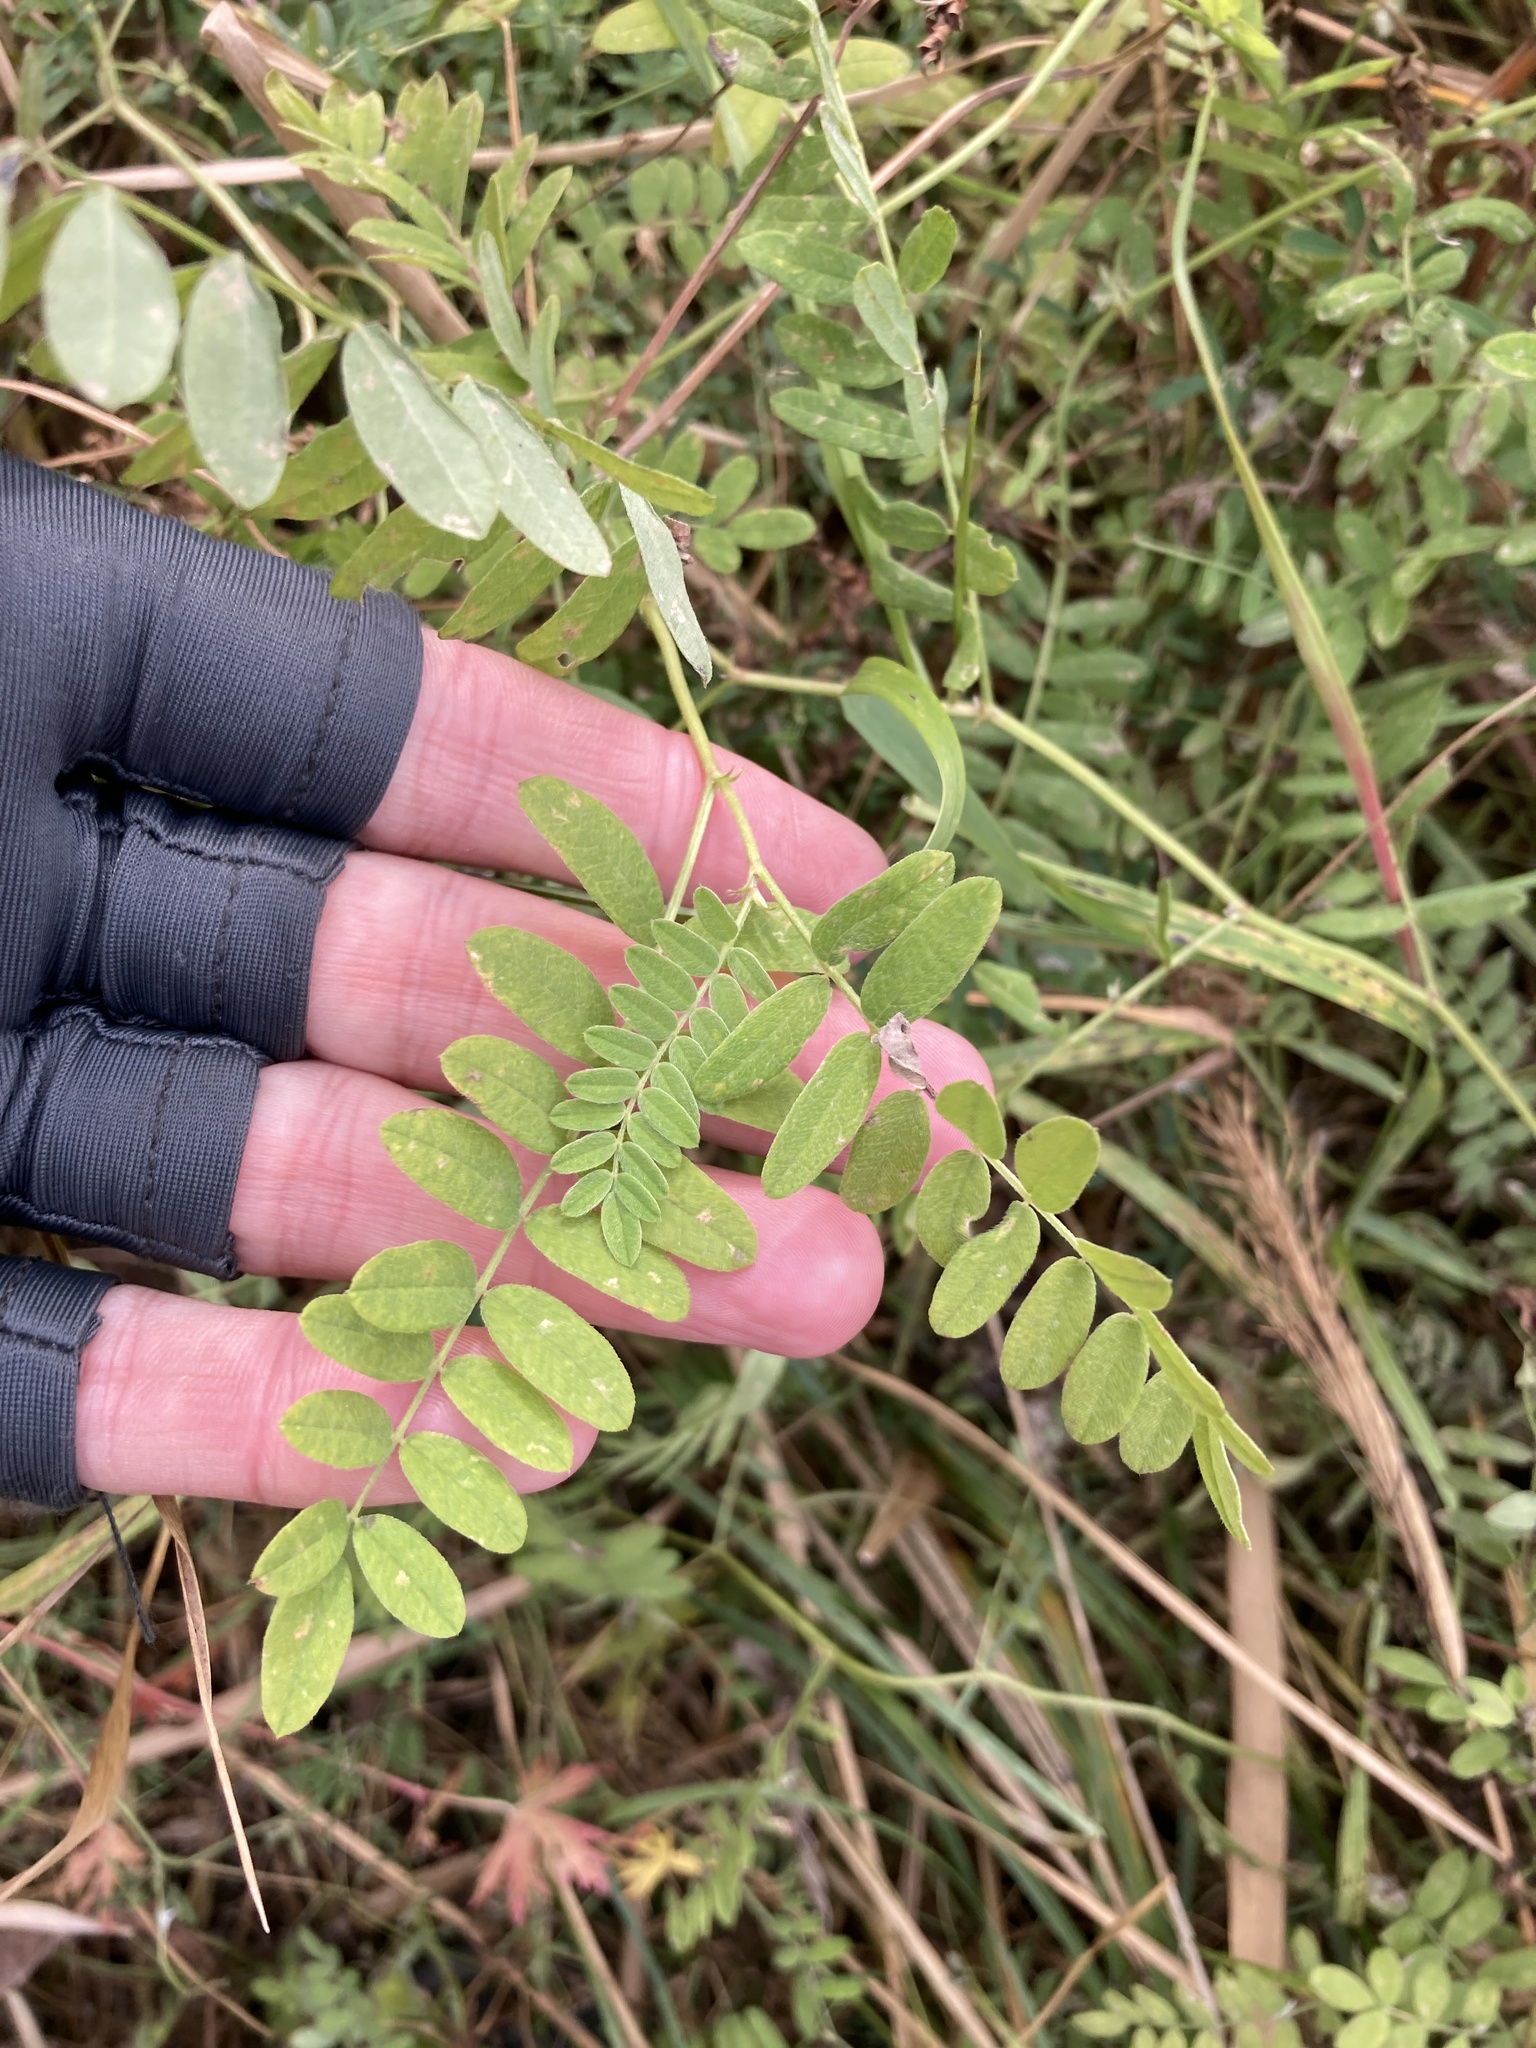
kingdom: Plantae
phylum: Tracheophyta
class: Magnoliopsida
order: Fabales
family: Fabaceae
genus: Astragalus
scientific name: Astragalus cicer
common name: Chick-pea milk-vetch
